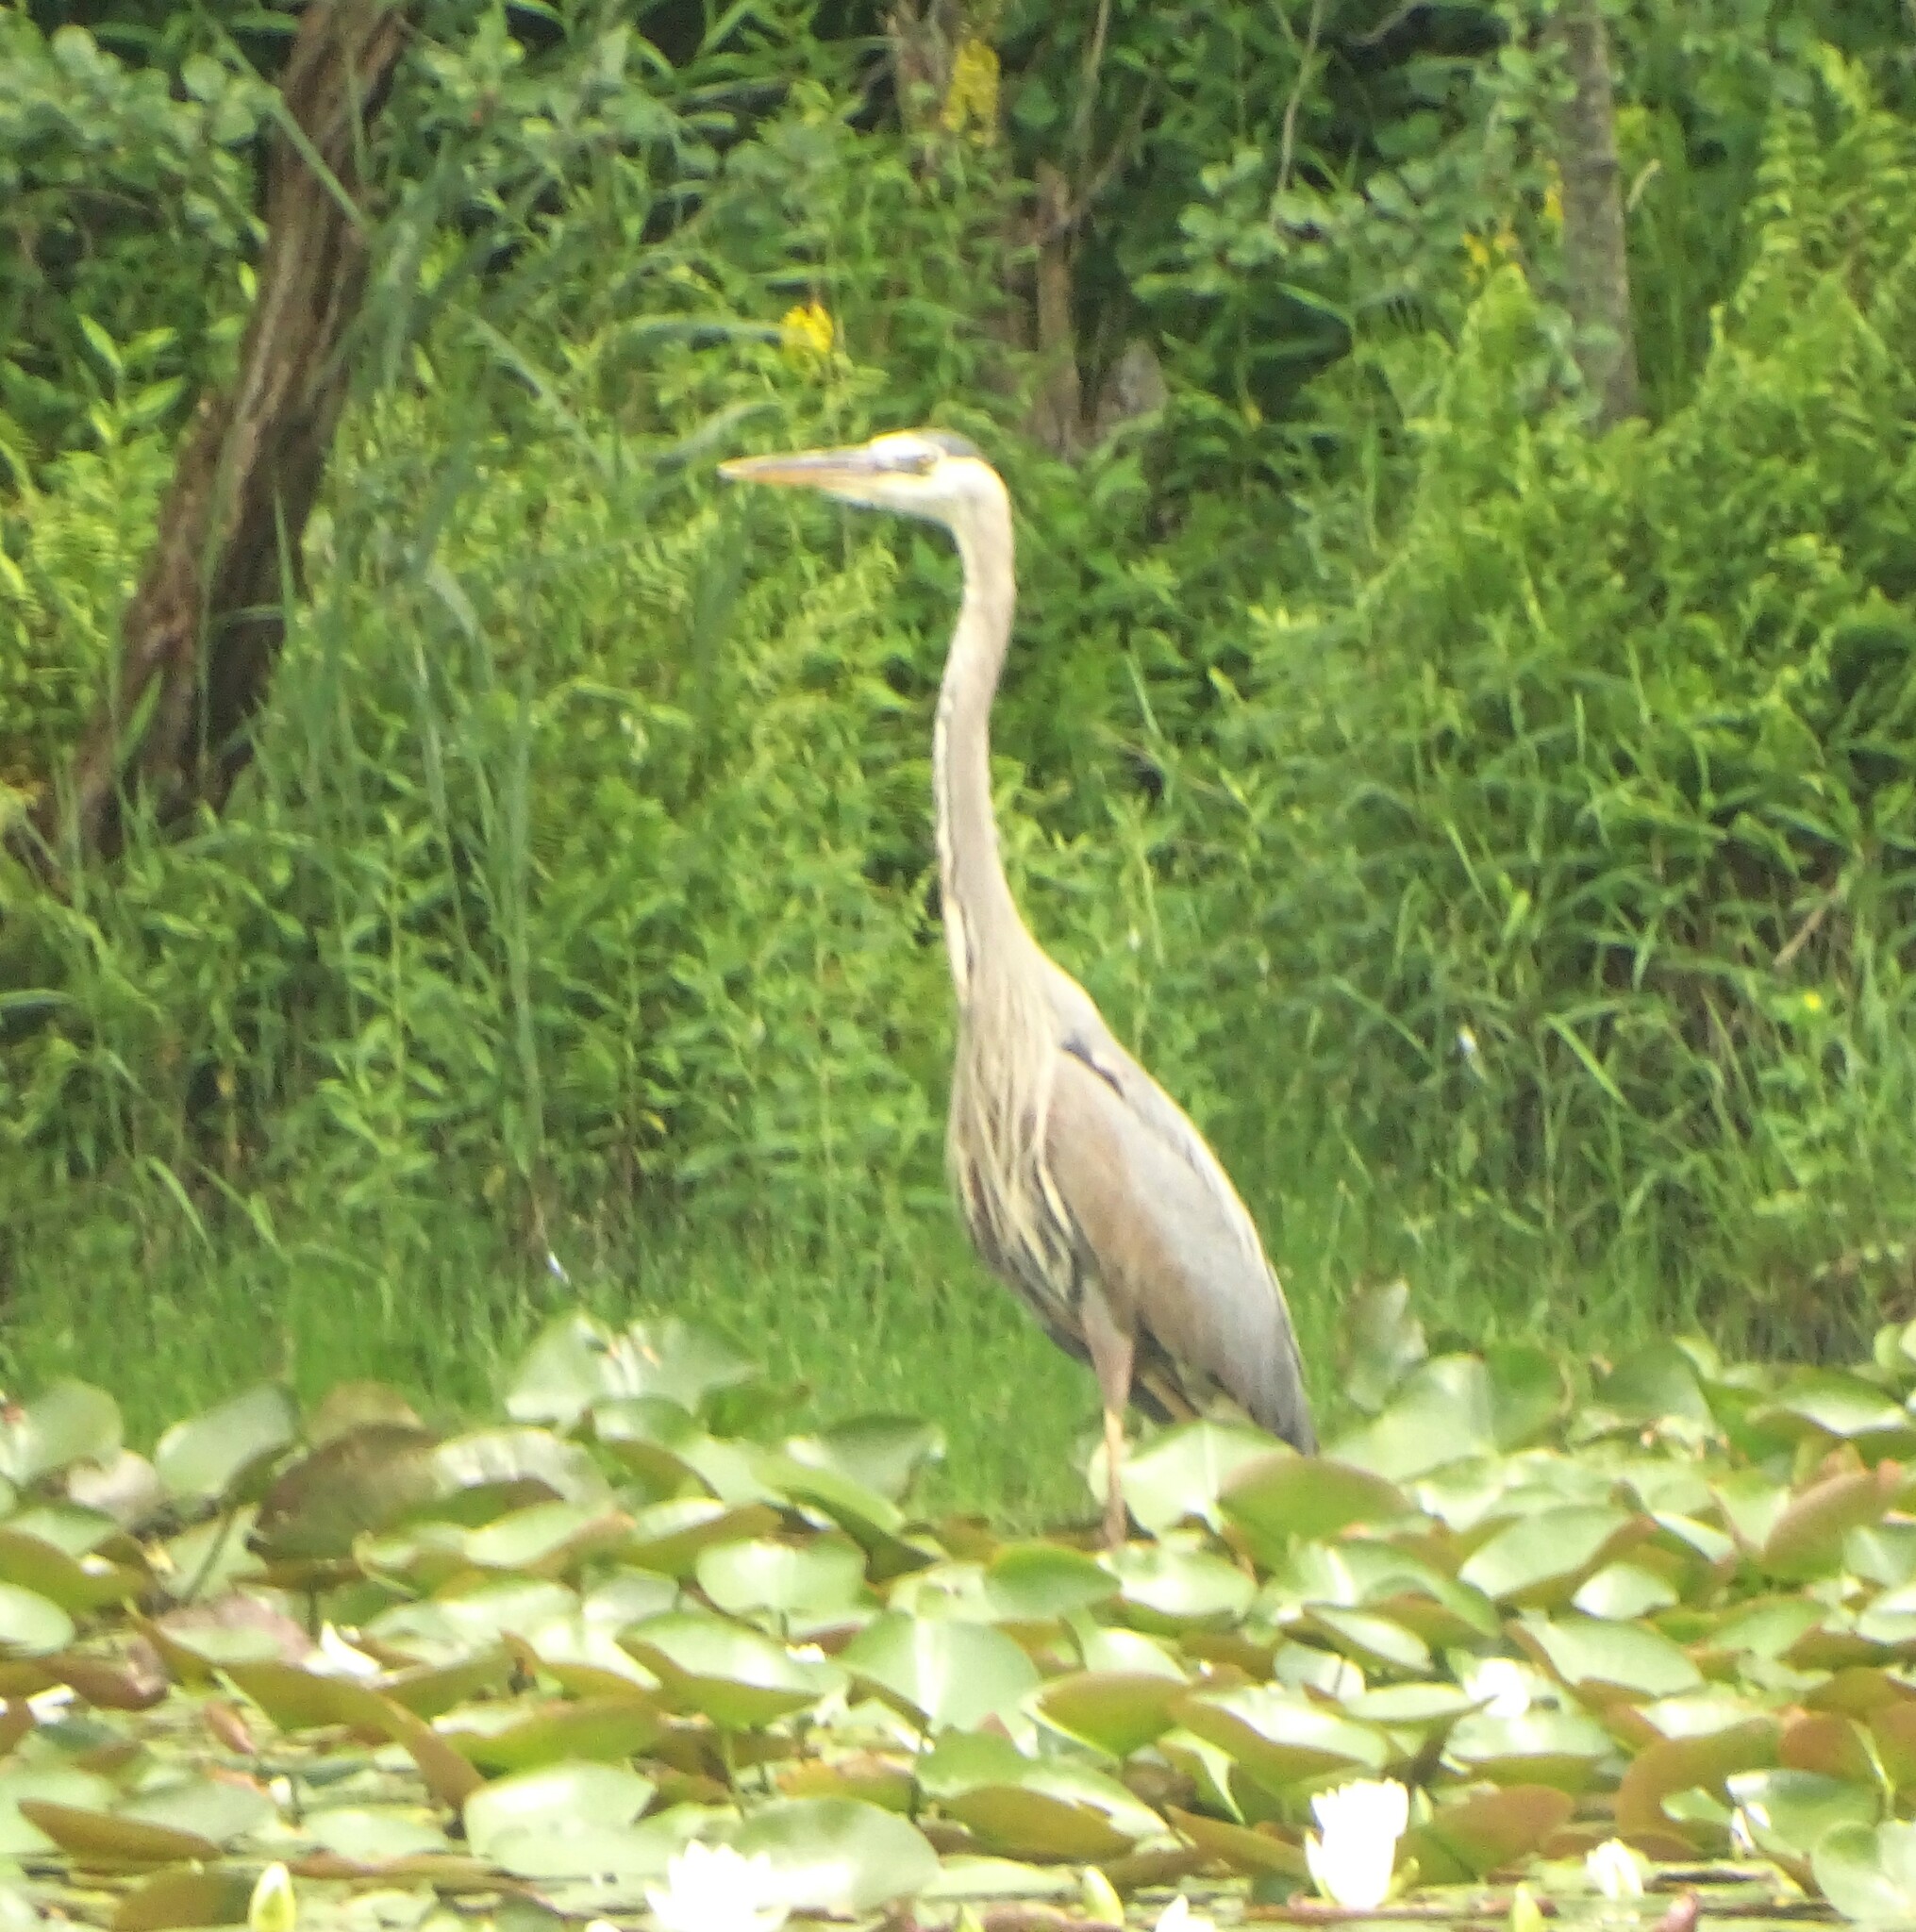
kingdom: Animalia
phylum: Chordata
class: Aves
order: Pelecaniformes
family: Ardeidae
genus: Ardea
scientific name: Ardea herodias
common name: Great blue heron
